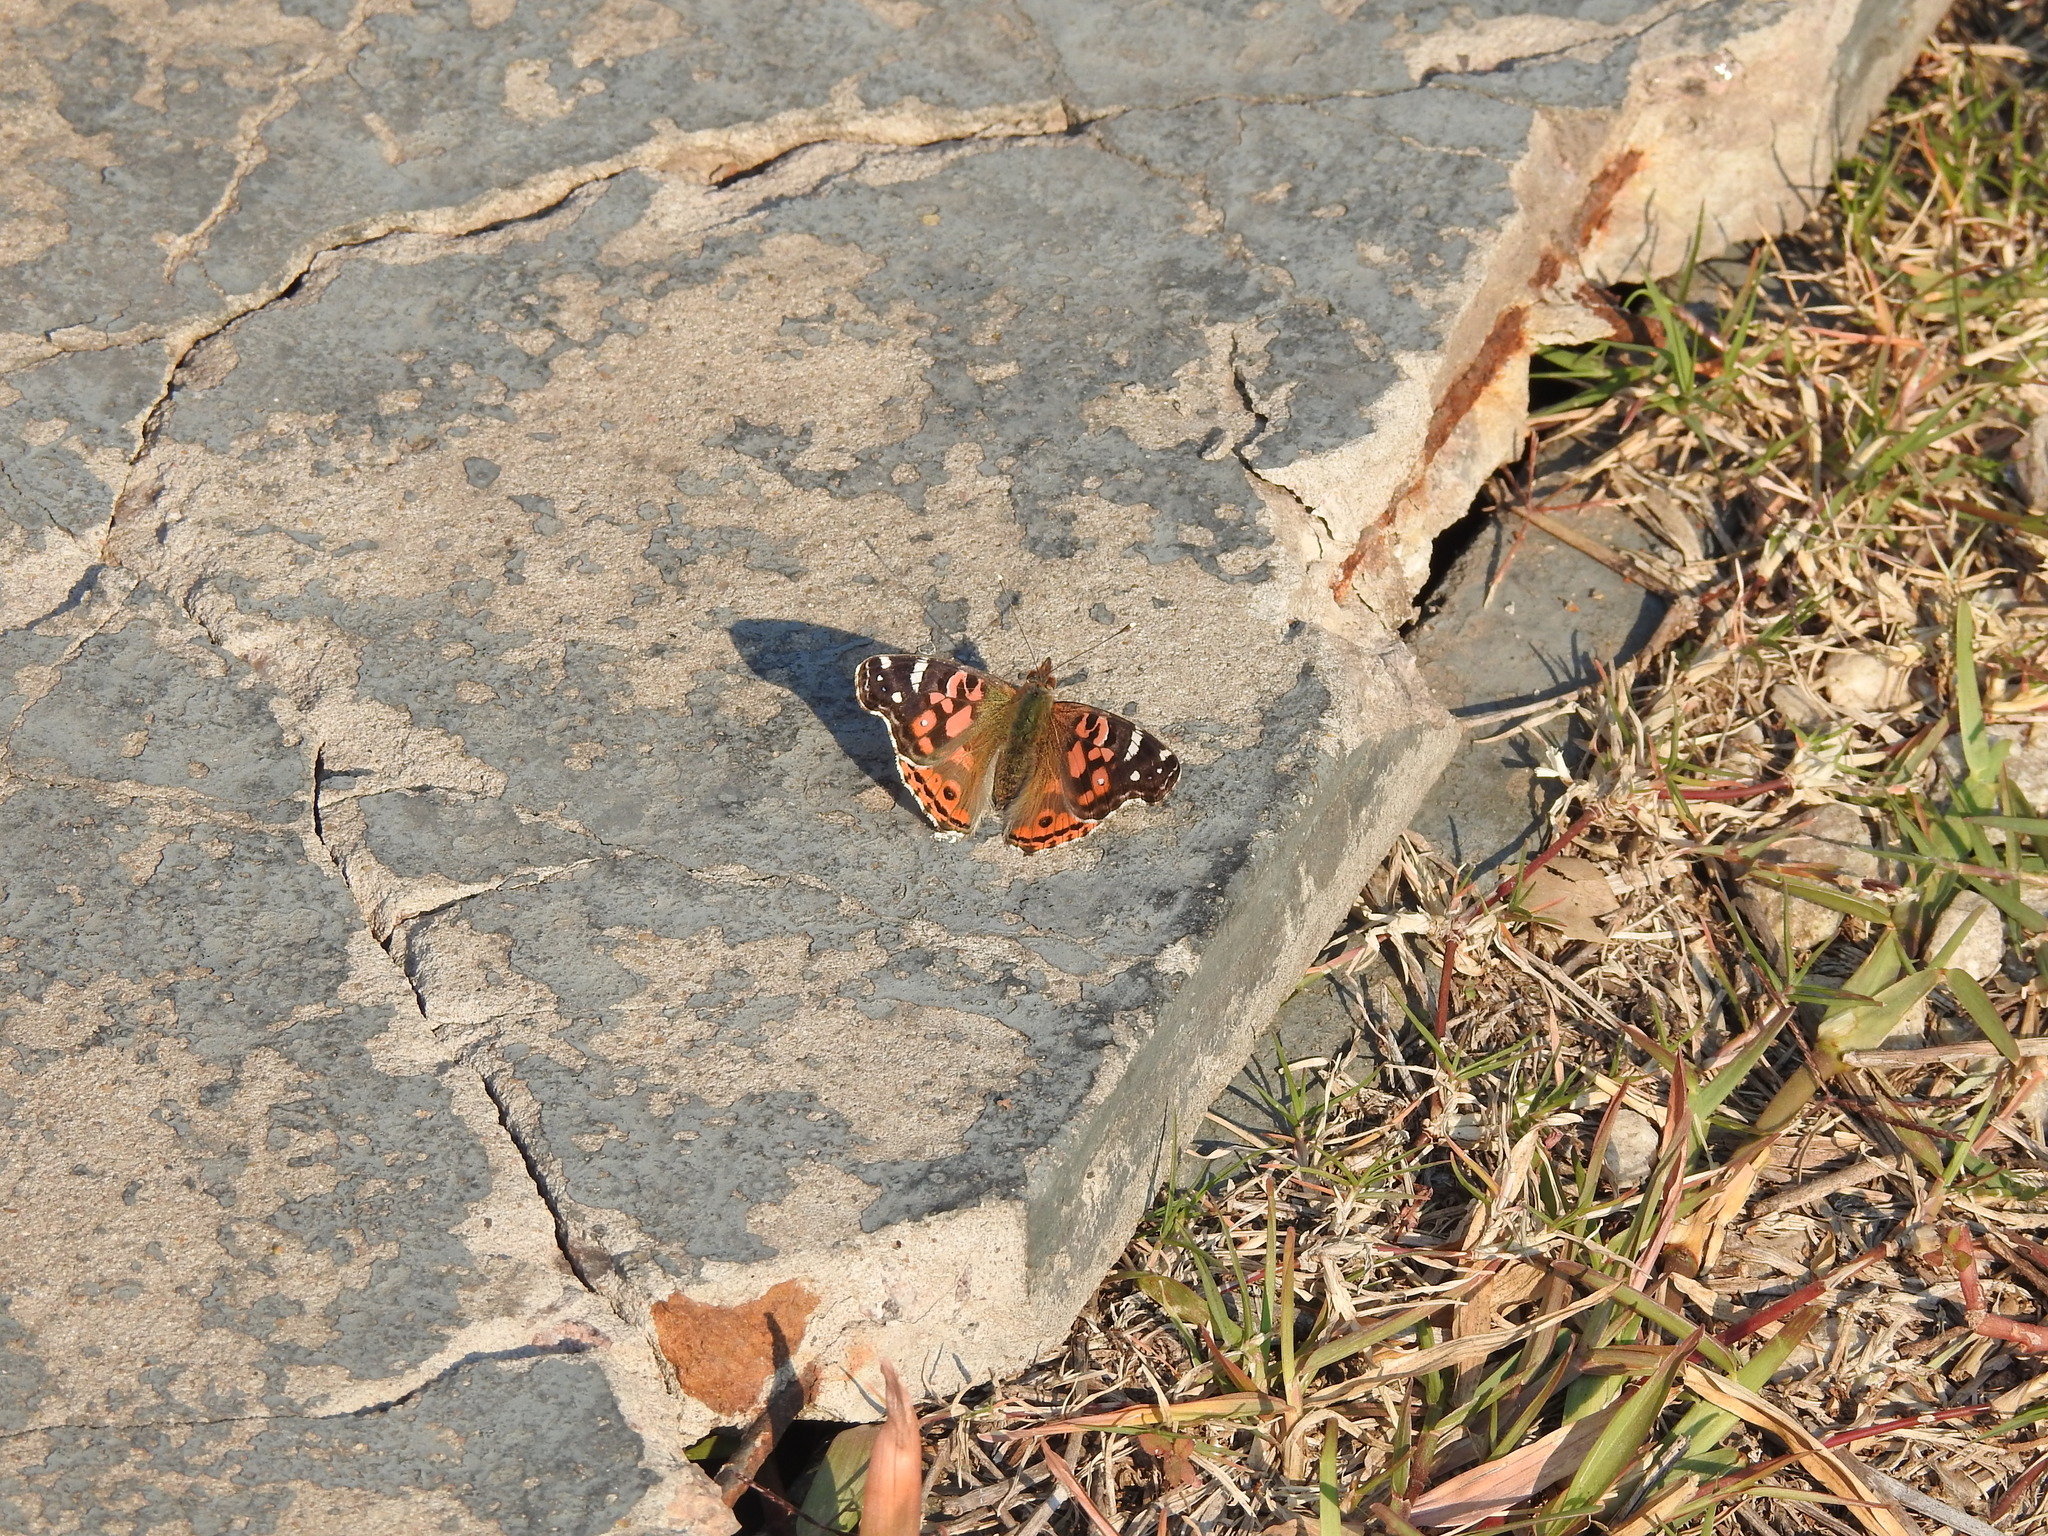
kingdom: Animalia
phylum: Arthropoda
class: Insecta
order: Lepidoptera
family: Nymphalidae
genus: Vanessa
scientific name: Vanessa braziliensis
